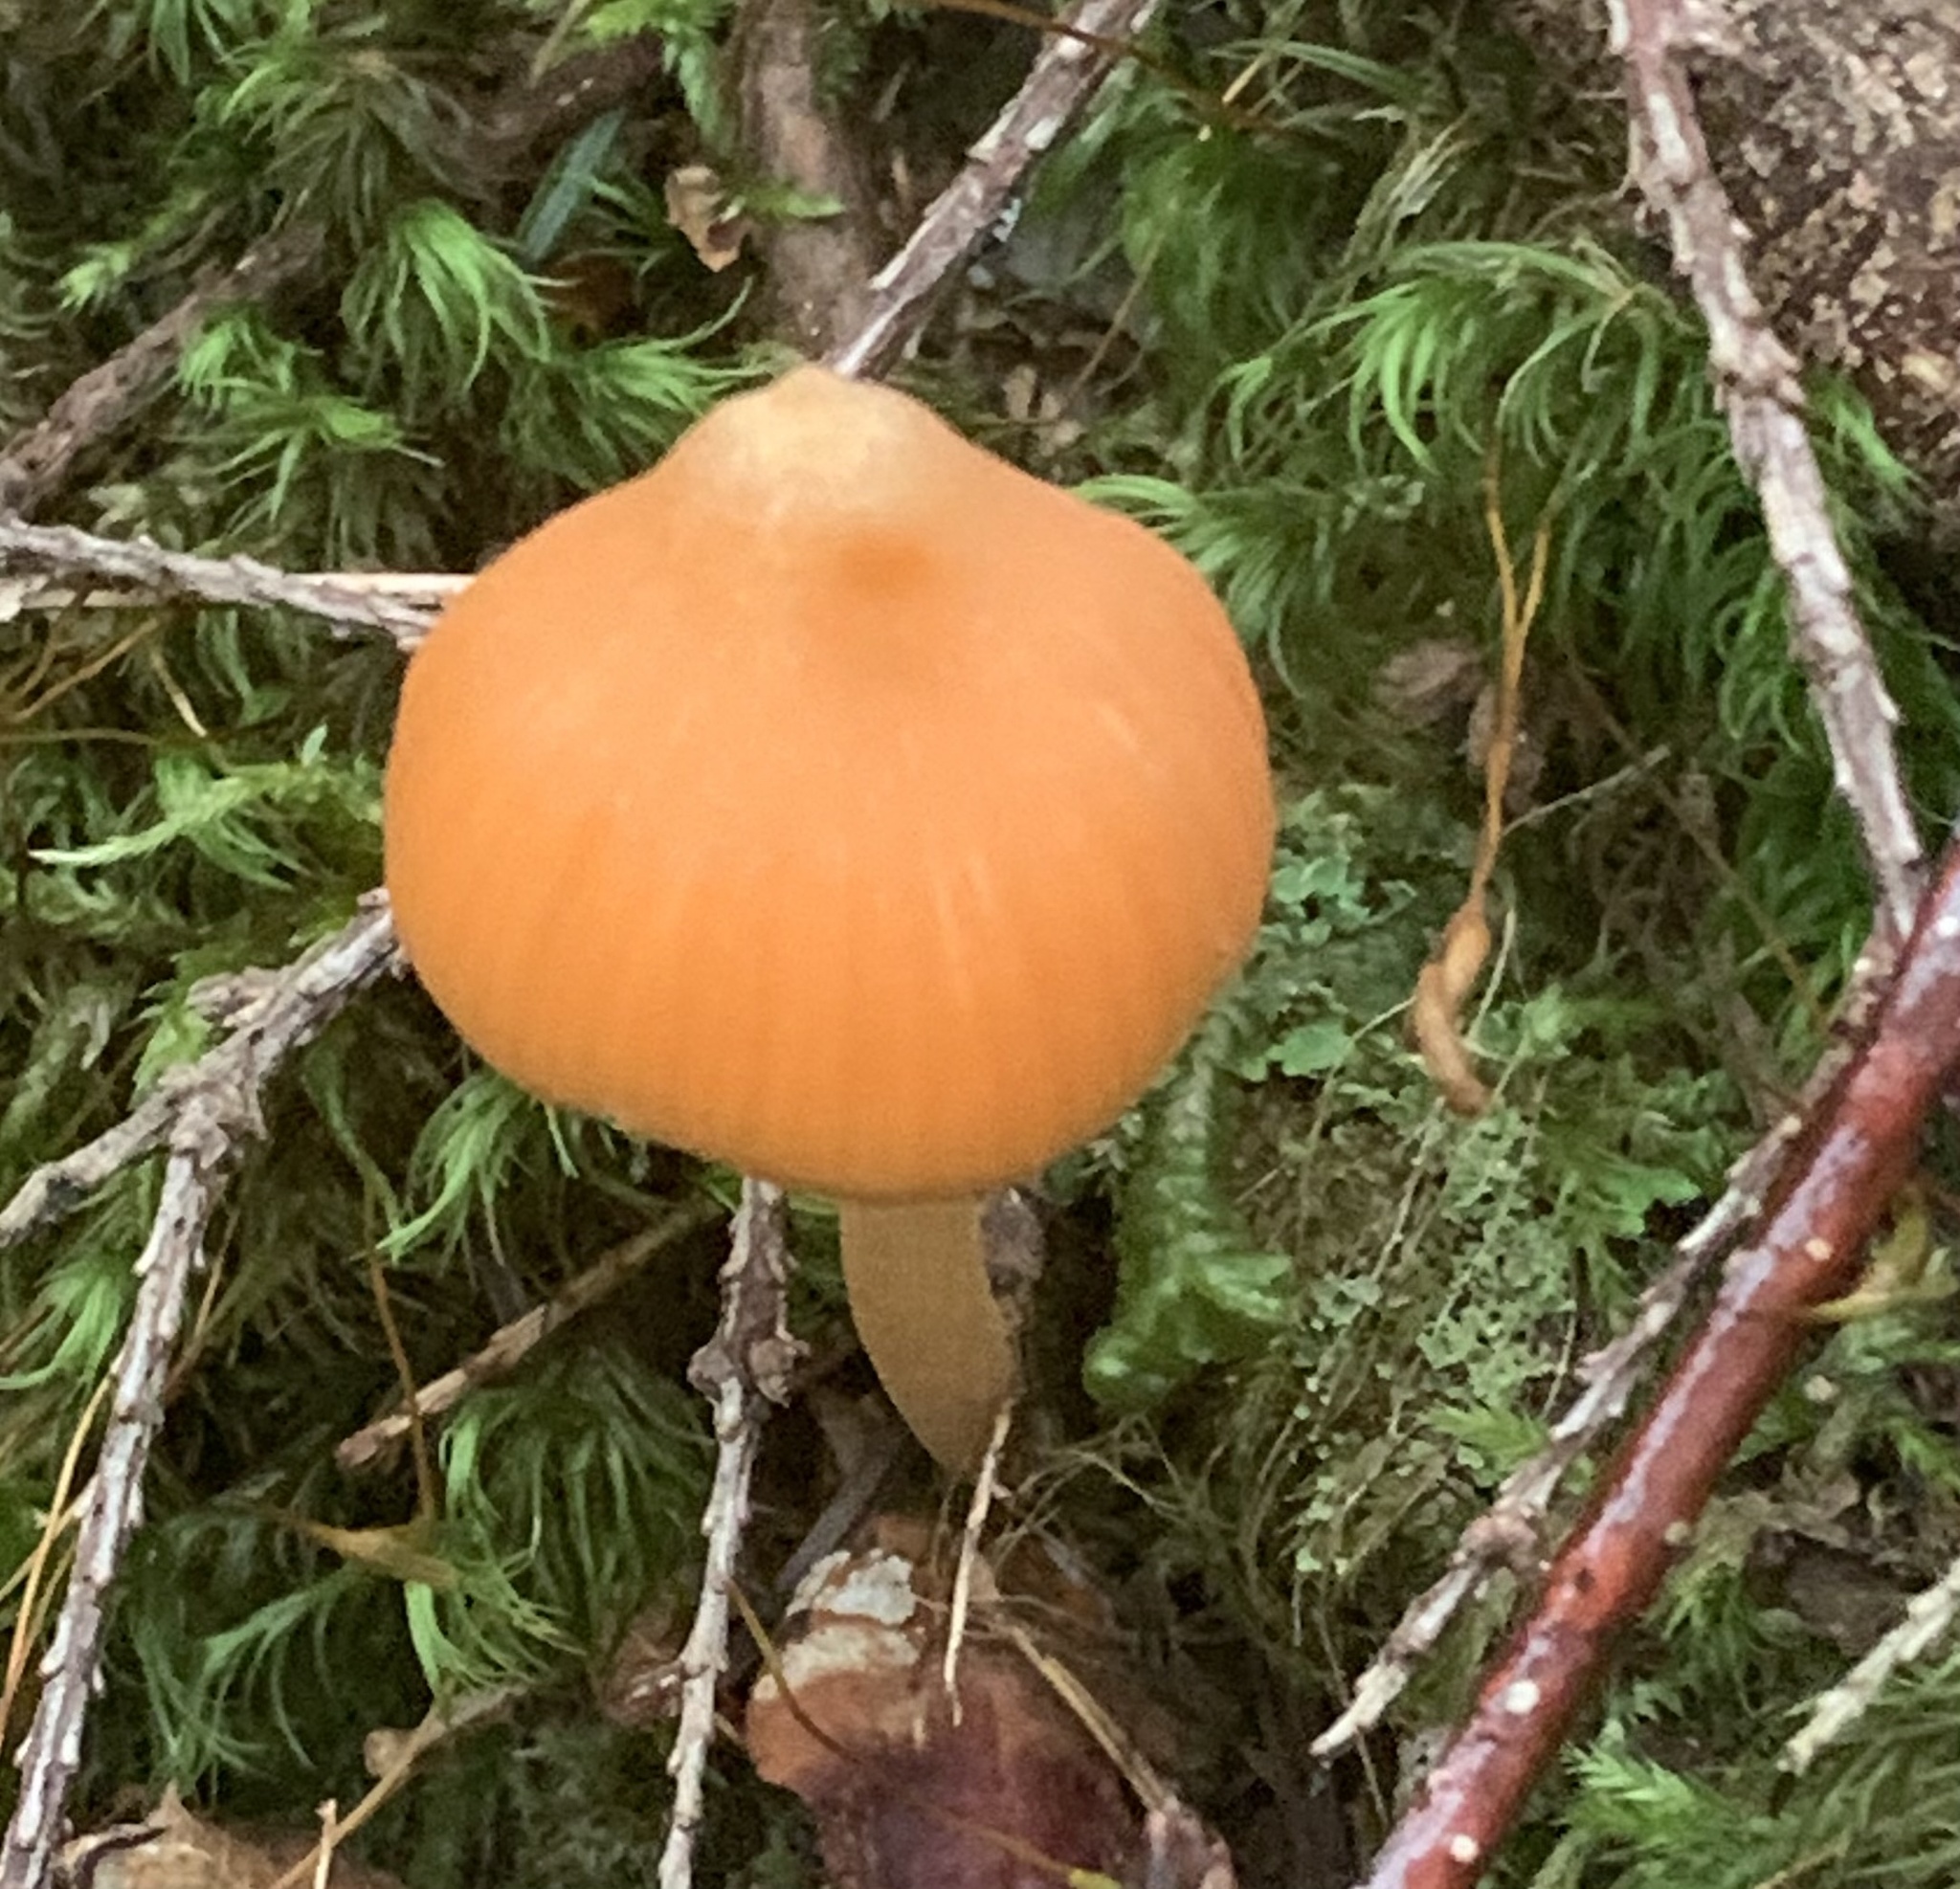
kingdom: Fungi
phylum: Basidiomycota
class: Agaricomycetes
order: Agaricales
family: Entolomataceae
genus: Entoloma
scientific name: Entoloma quadratum
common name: Salmon pinkgill
